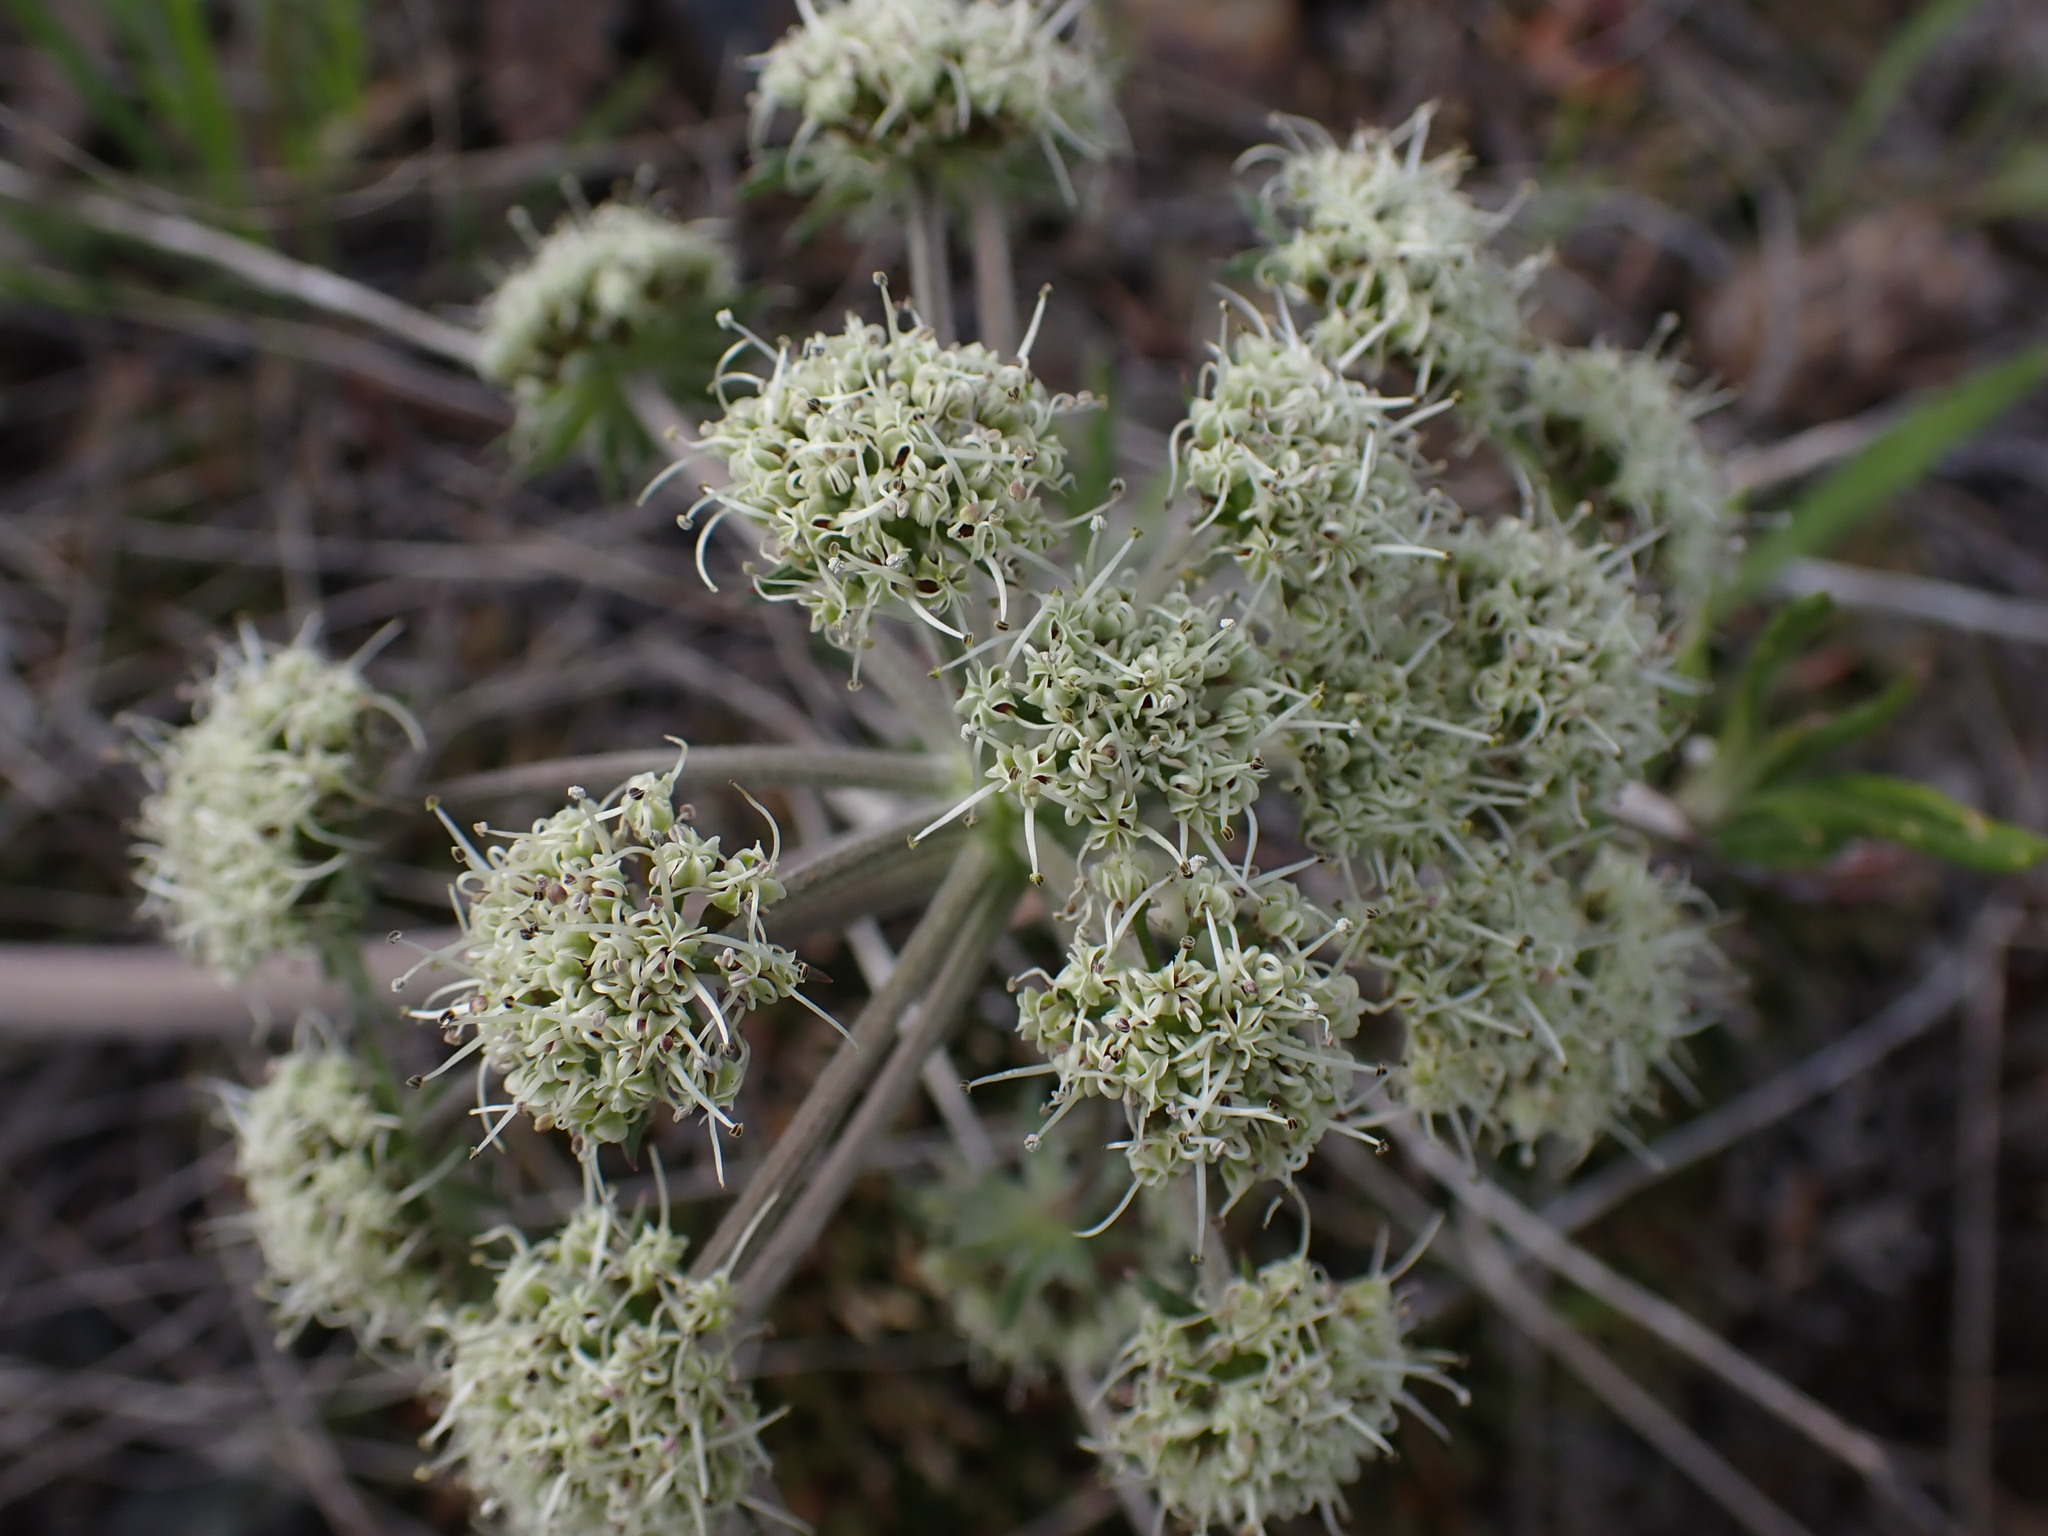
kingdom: Plantae
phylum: Tracheophyta
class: Magnoliopsida
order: Apiales
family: Apiaceae
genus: Lomatium
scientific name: Lomatium macrocarpum
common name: Big-seed biscuitroot
